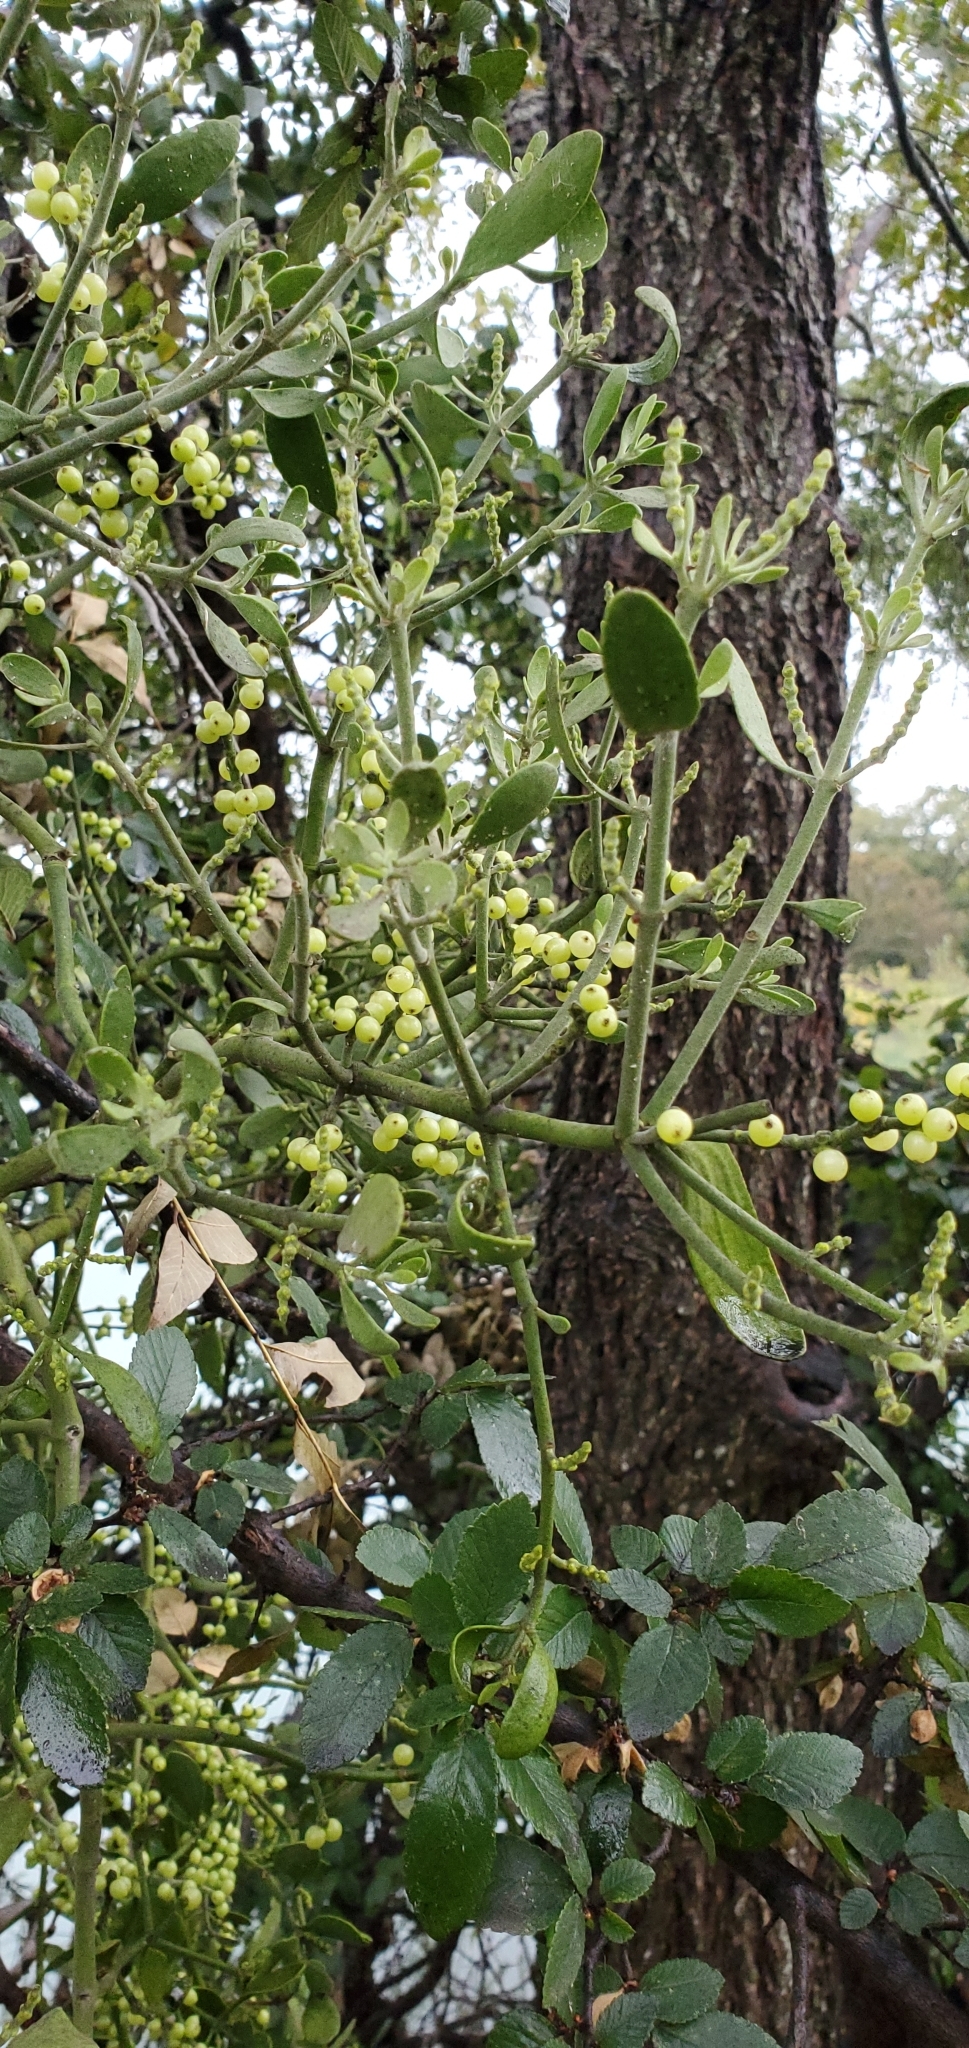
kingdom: Plantae
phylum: Tracheophyta
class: Magnoliopsida
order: Santalales
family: Viscaceae
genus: Phoradendron
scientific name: Phoradendron leucarpum
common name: Pacific mistletoe
